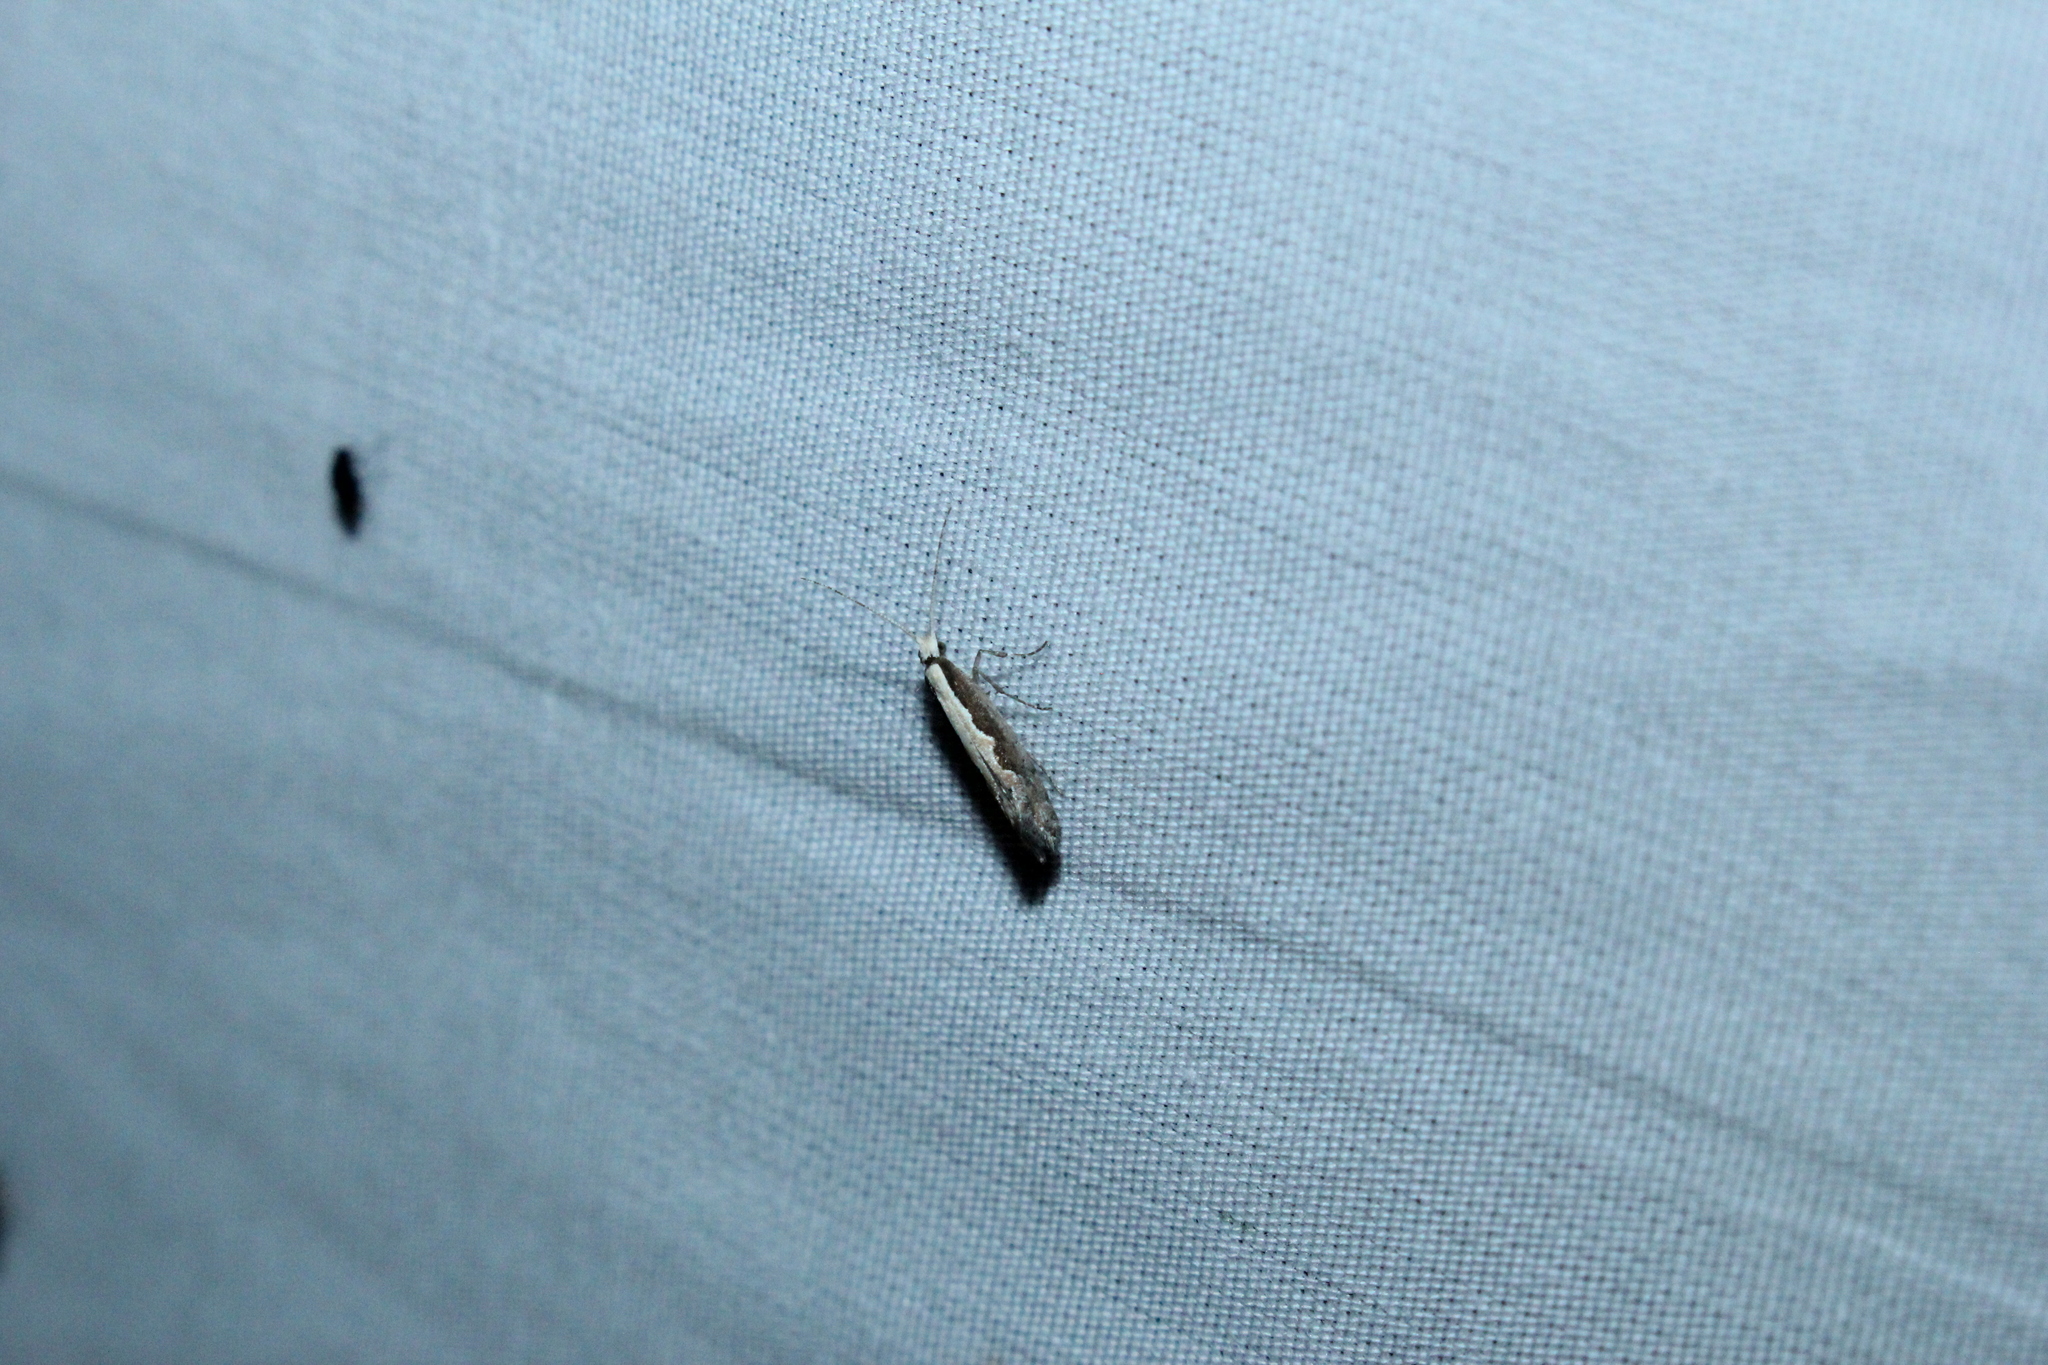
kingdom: Animalia
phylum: Arthropoda
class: Insecta
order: Lepidoptera
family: Plutellidae
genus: Plutella
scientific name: Plutella xylostella
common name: Diamond-back moth
